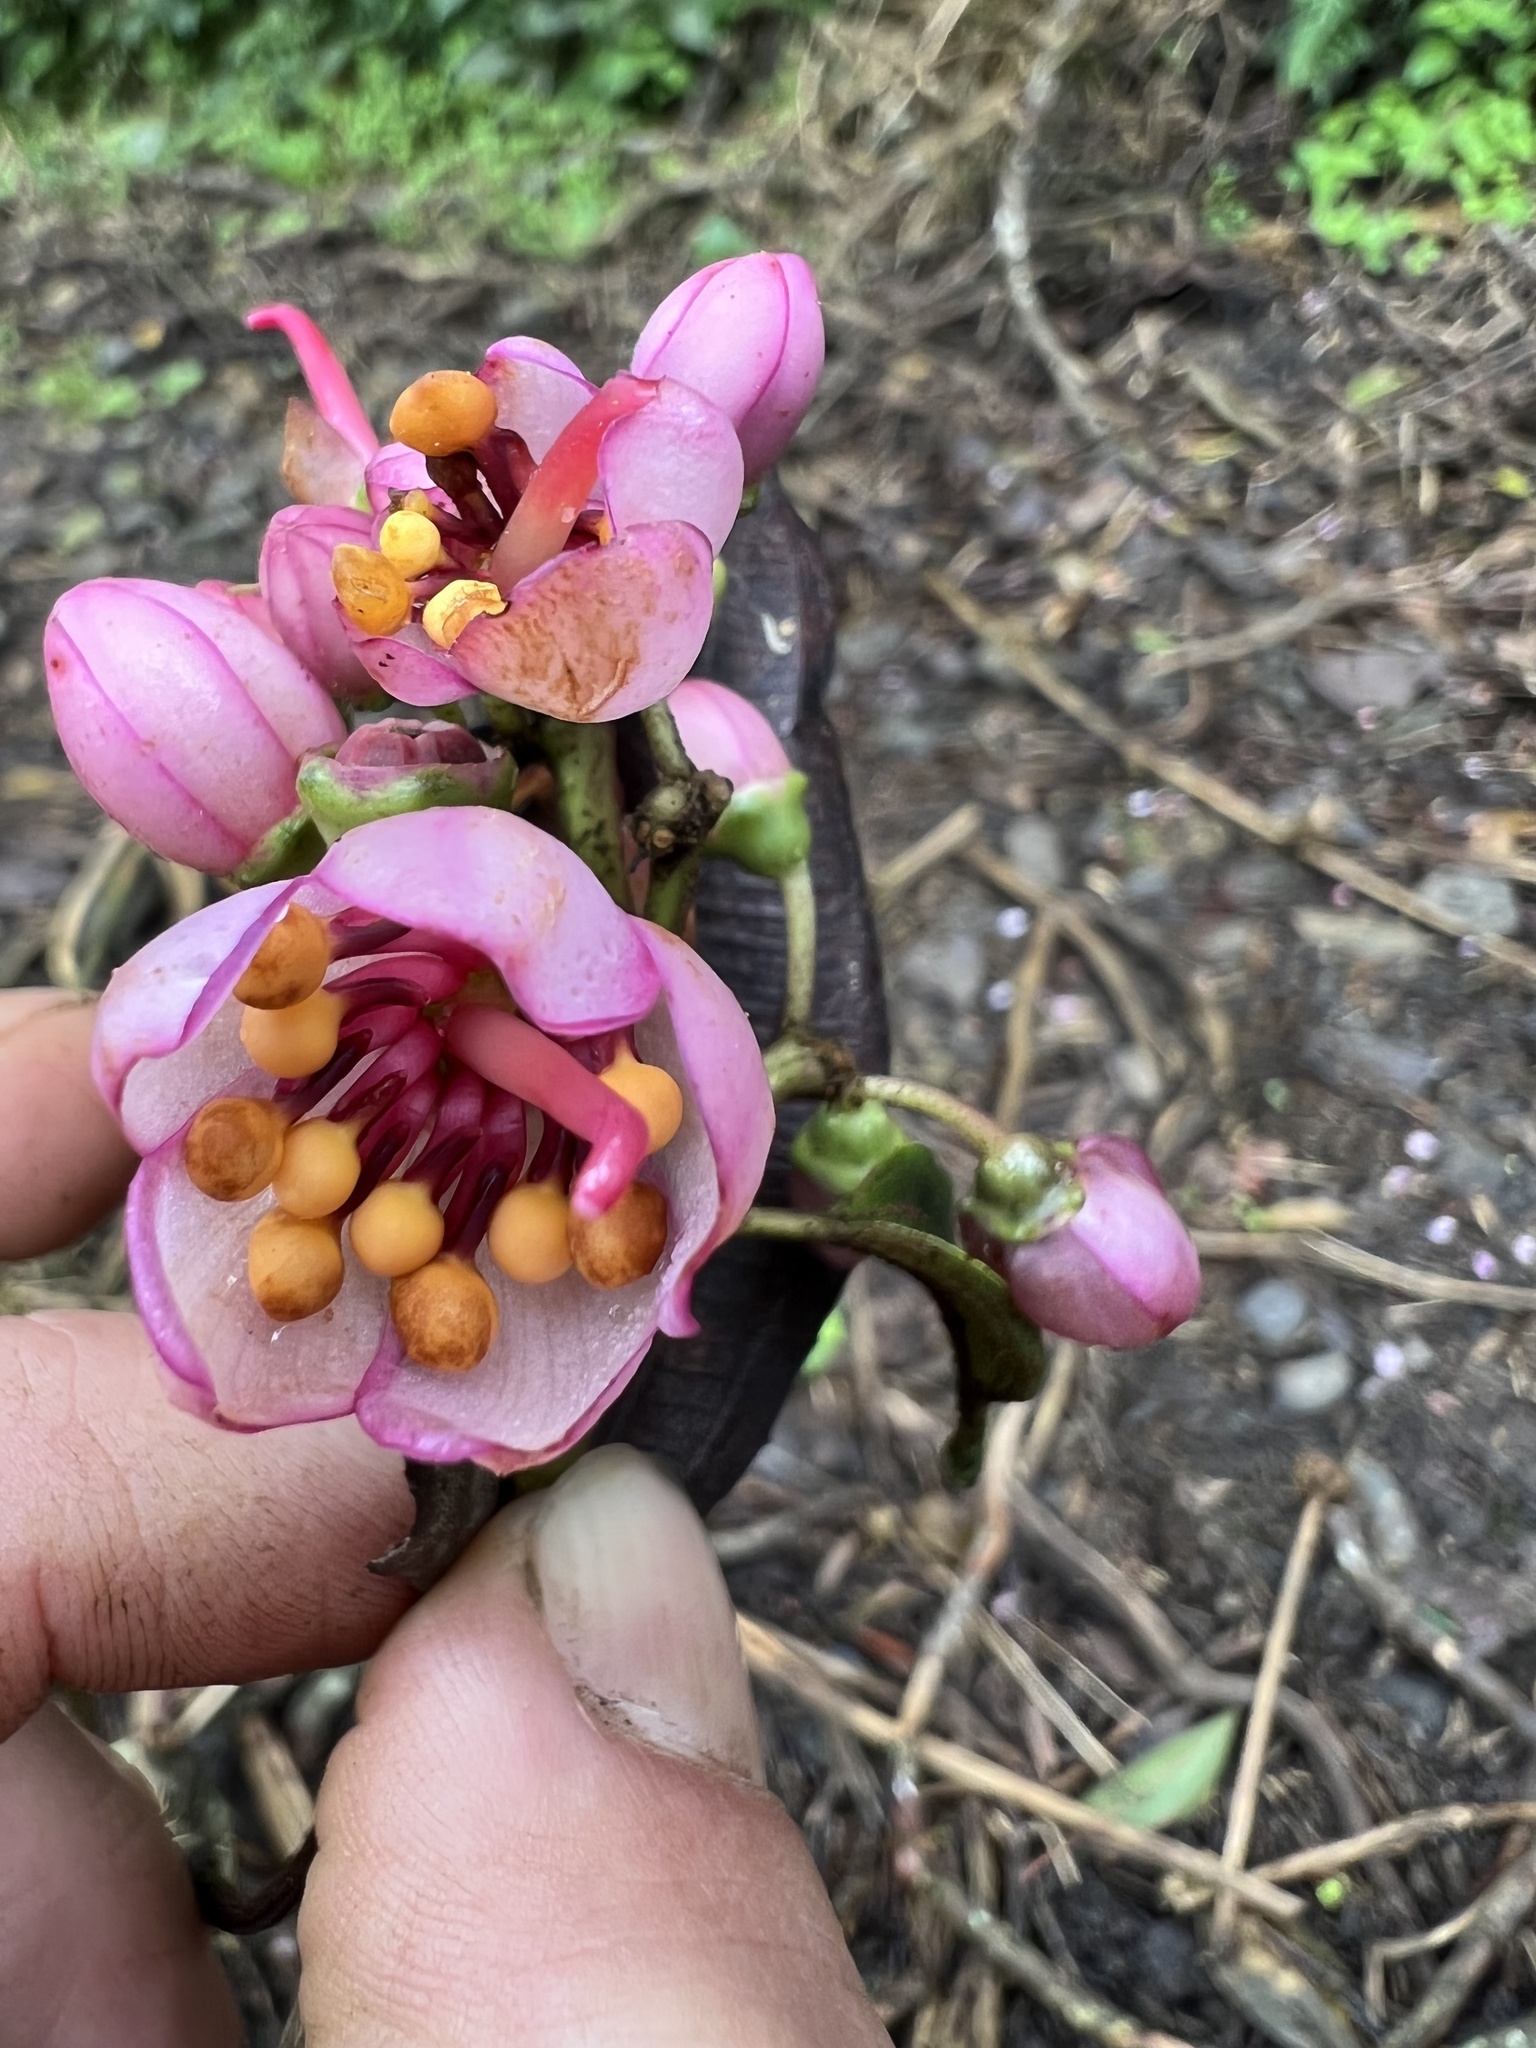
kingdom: Plantae
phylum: Tracheophyta
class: Magnoliopsida
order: Myrtales
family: Melastomataceae
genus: Axinaea
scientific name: Axinaea scutigera
